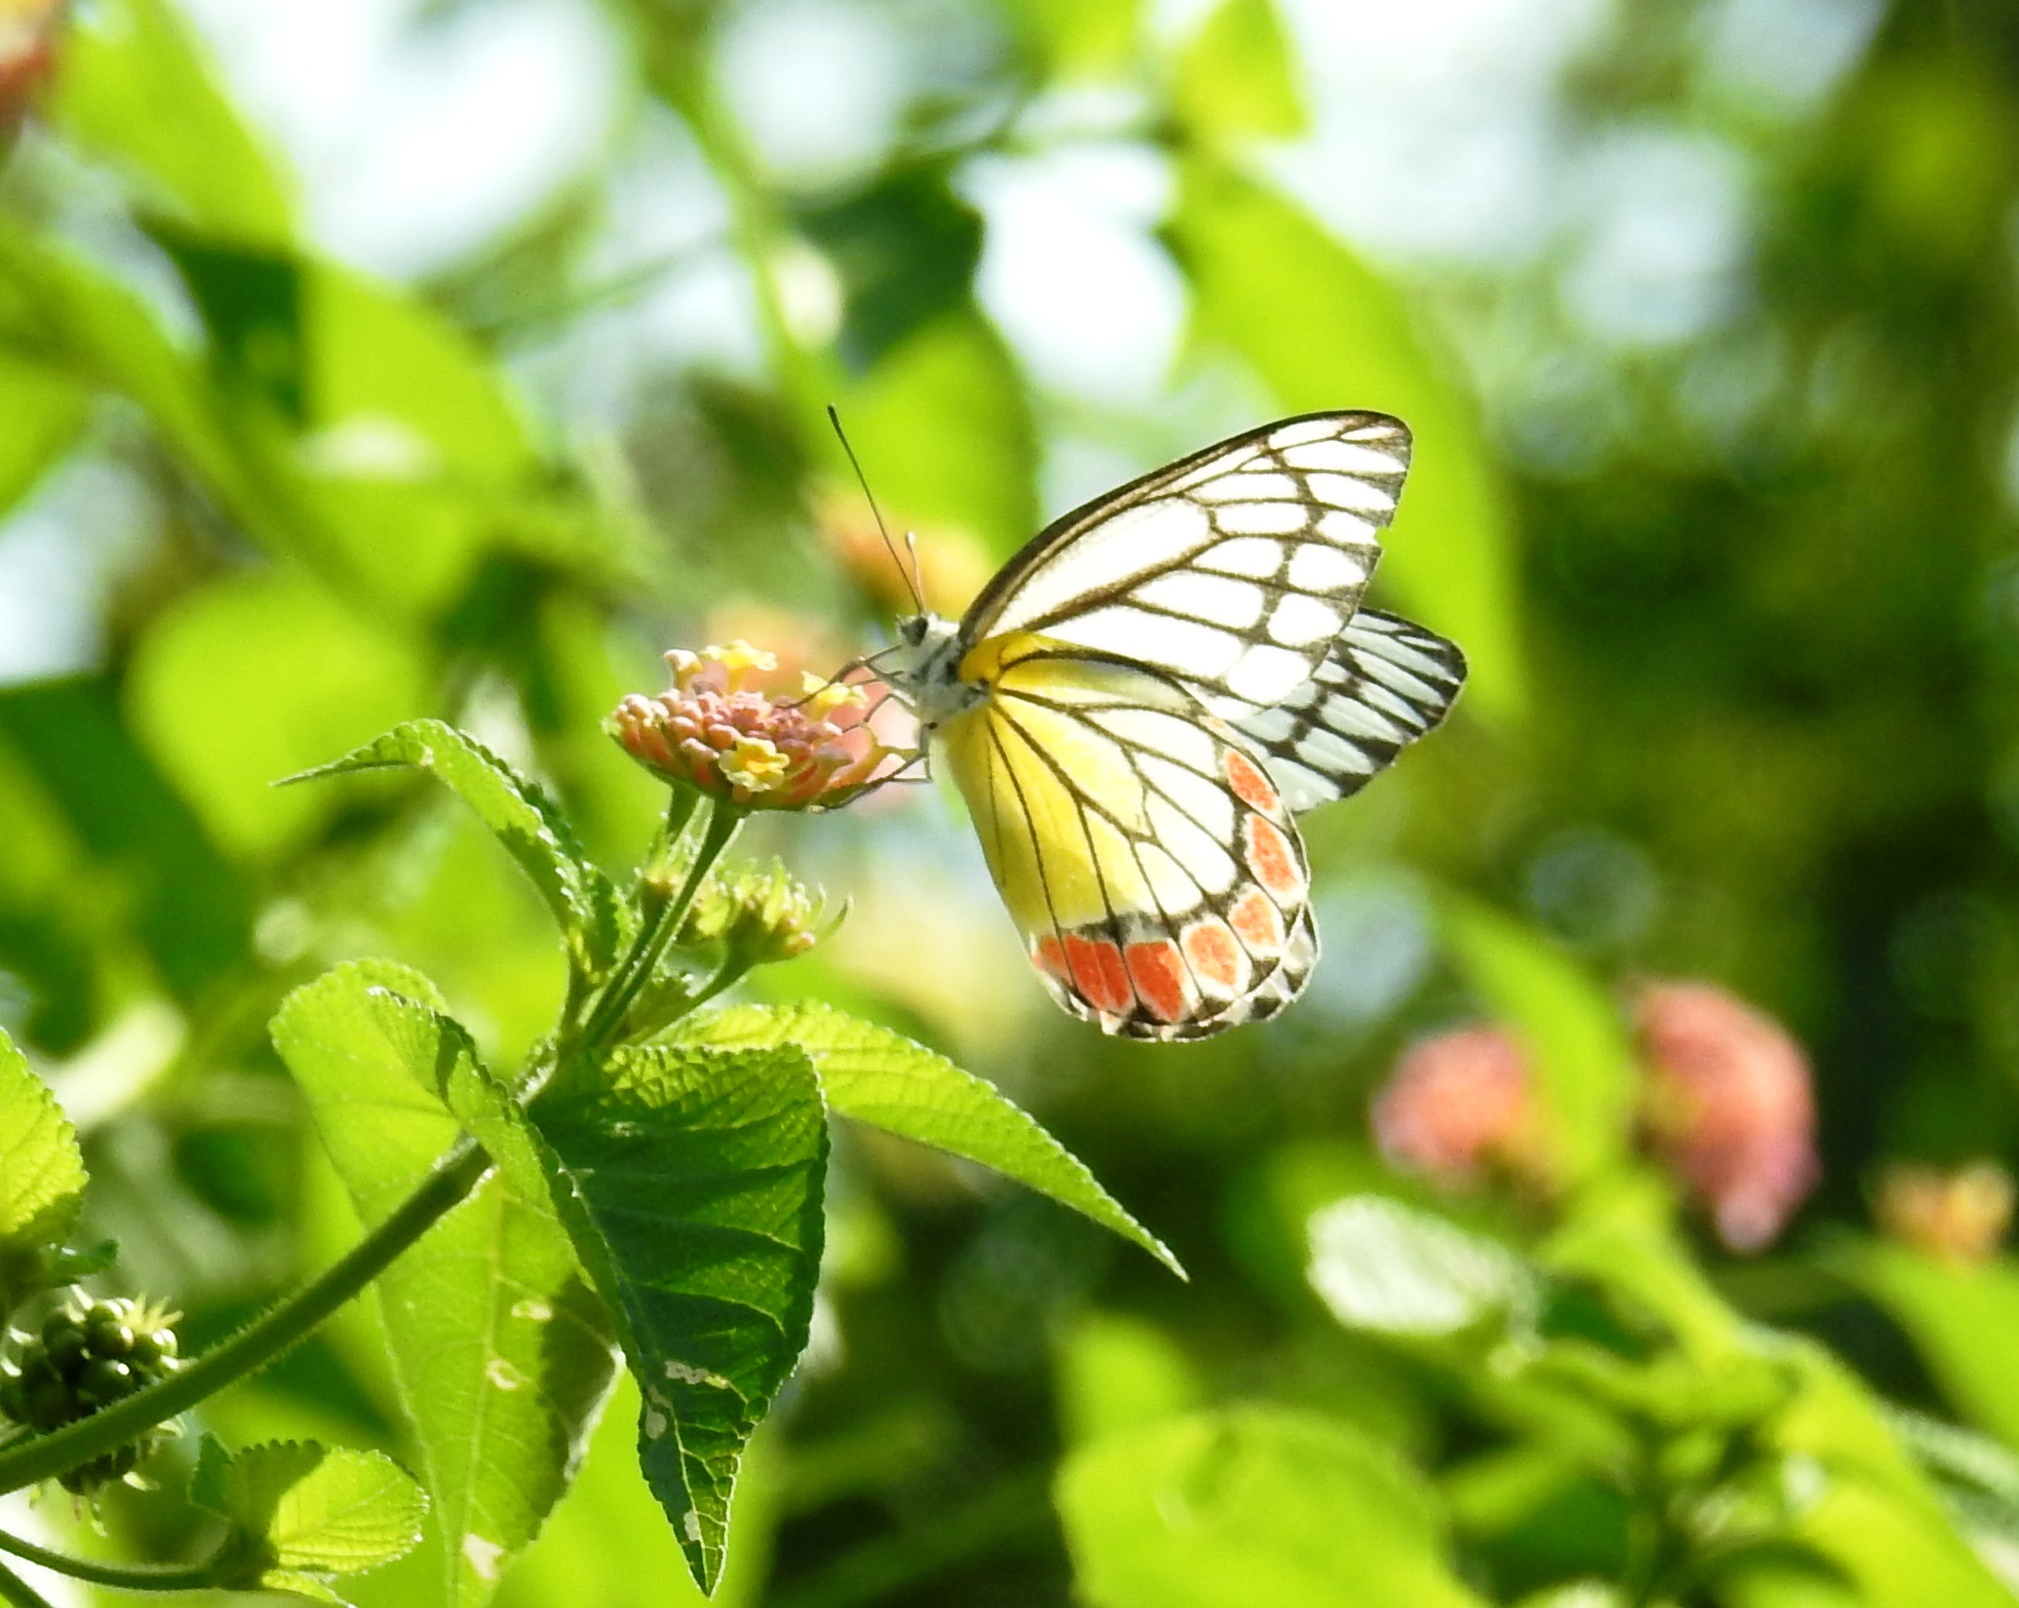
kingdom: Animalia
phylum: Arthropoda
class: Insecta
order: Lepidoptera
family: Pieridae
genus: Delias
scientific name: Delias eucharis
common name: Common jezebel
